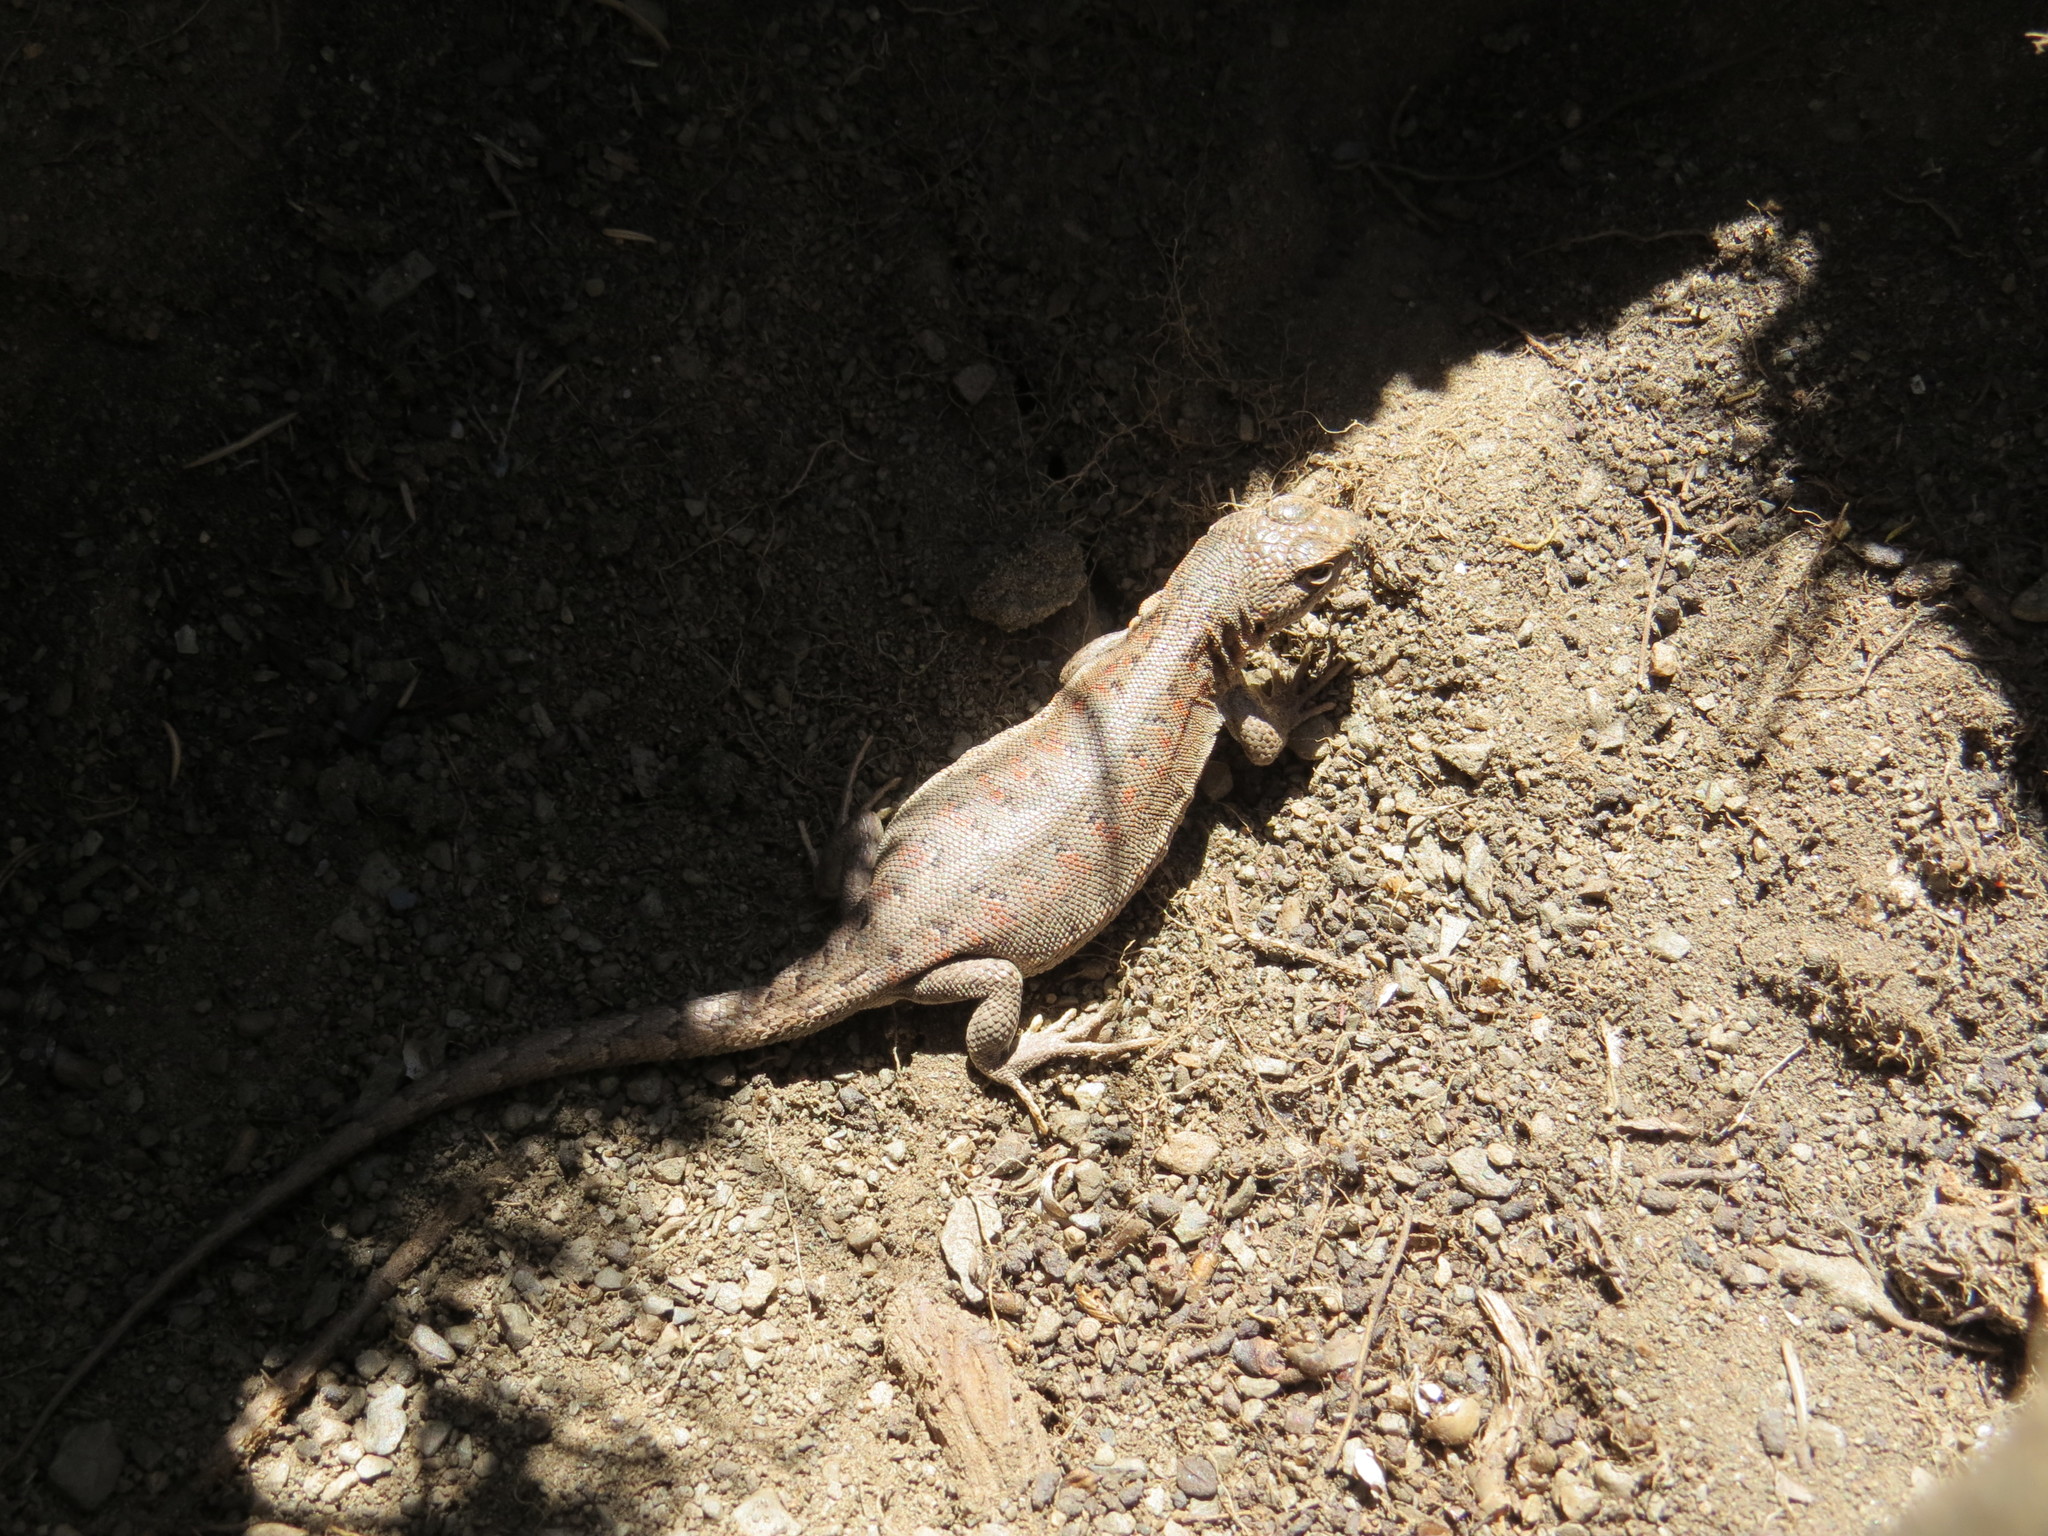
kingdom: Animalia
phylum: Chordata
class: Squamata
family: Liolaemidae
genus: Liolaemus
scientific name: Liolaemus ruibali
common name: Ruibal's tree iguana
